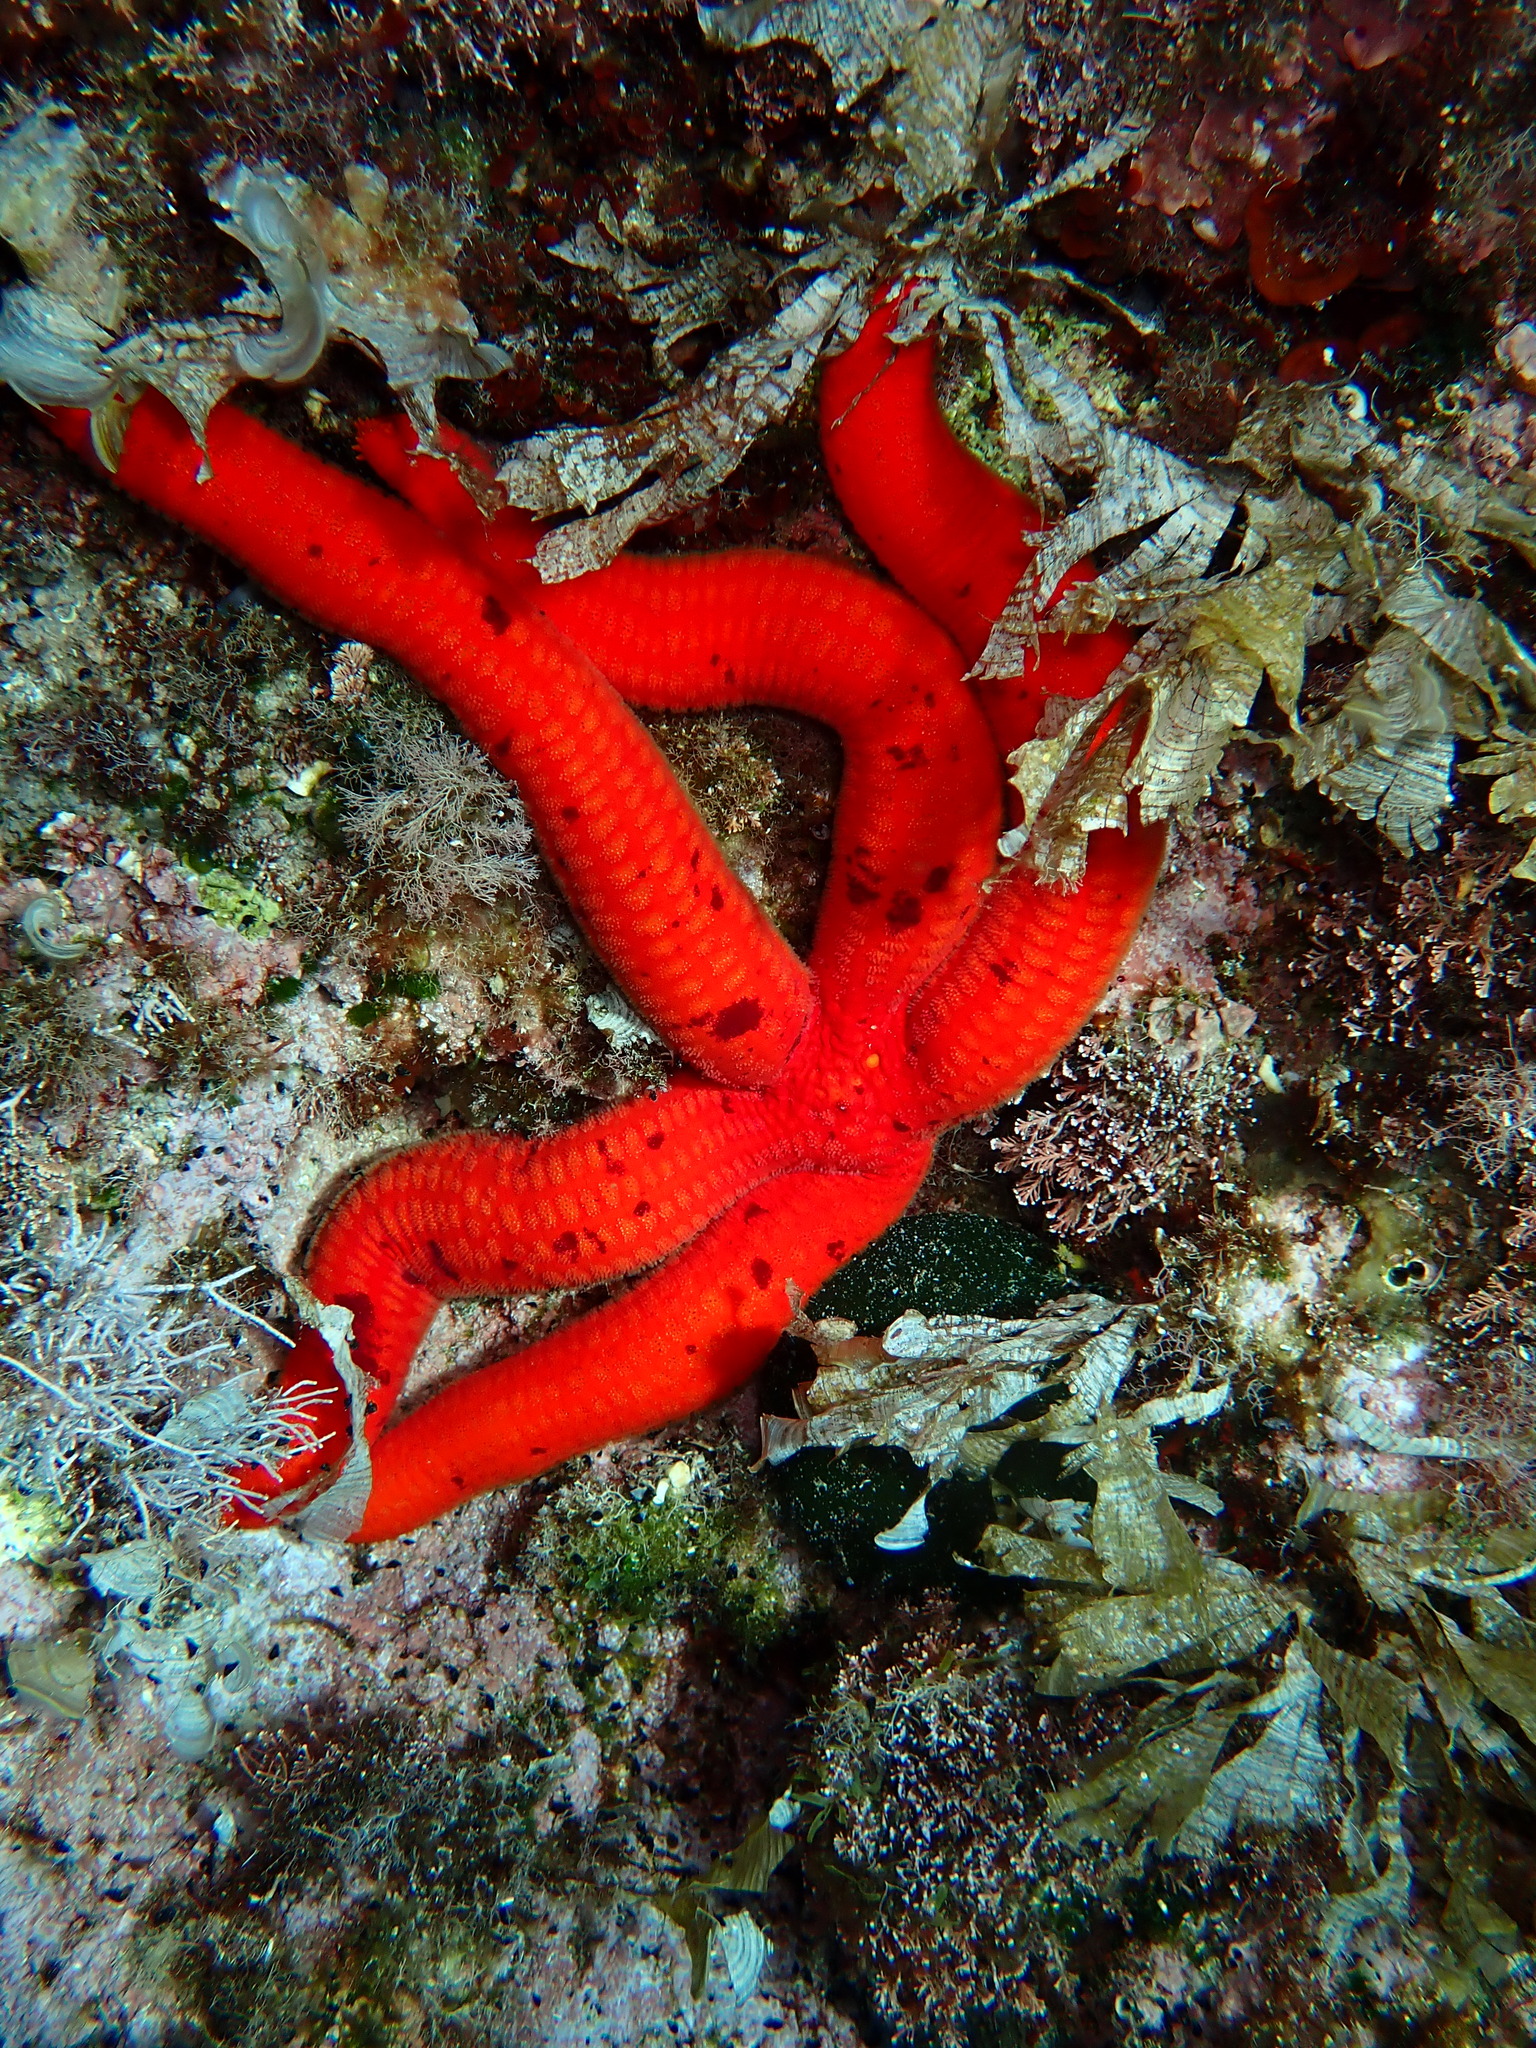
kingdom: Animalia
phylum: Echinodermata
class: Asteroidea
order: Valvatida
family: Ophidiasteridae
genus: Ophidiaster
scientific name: Ophidiaster ophidianus
